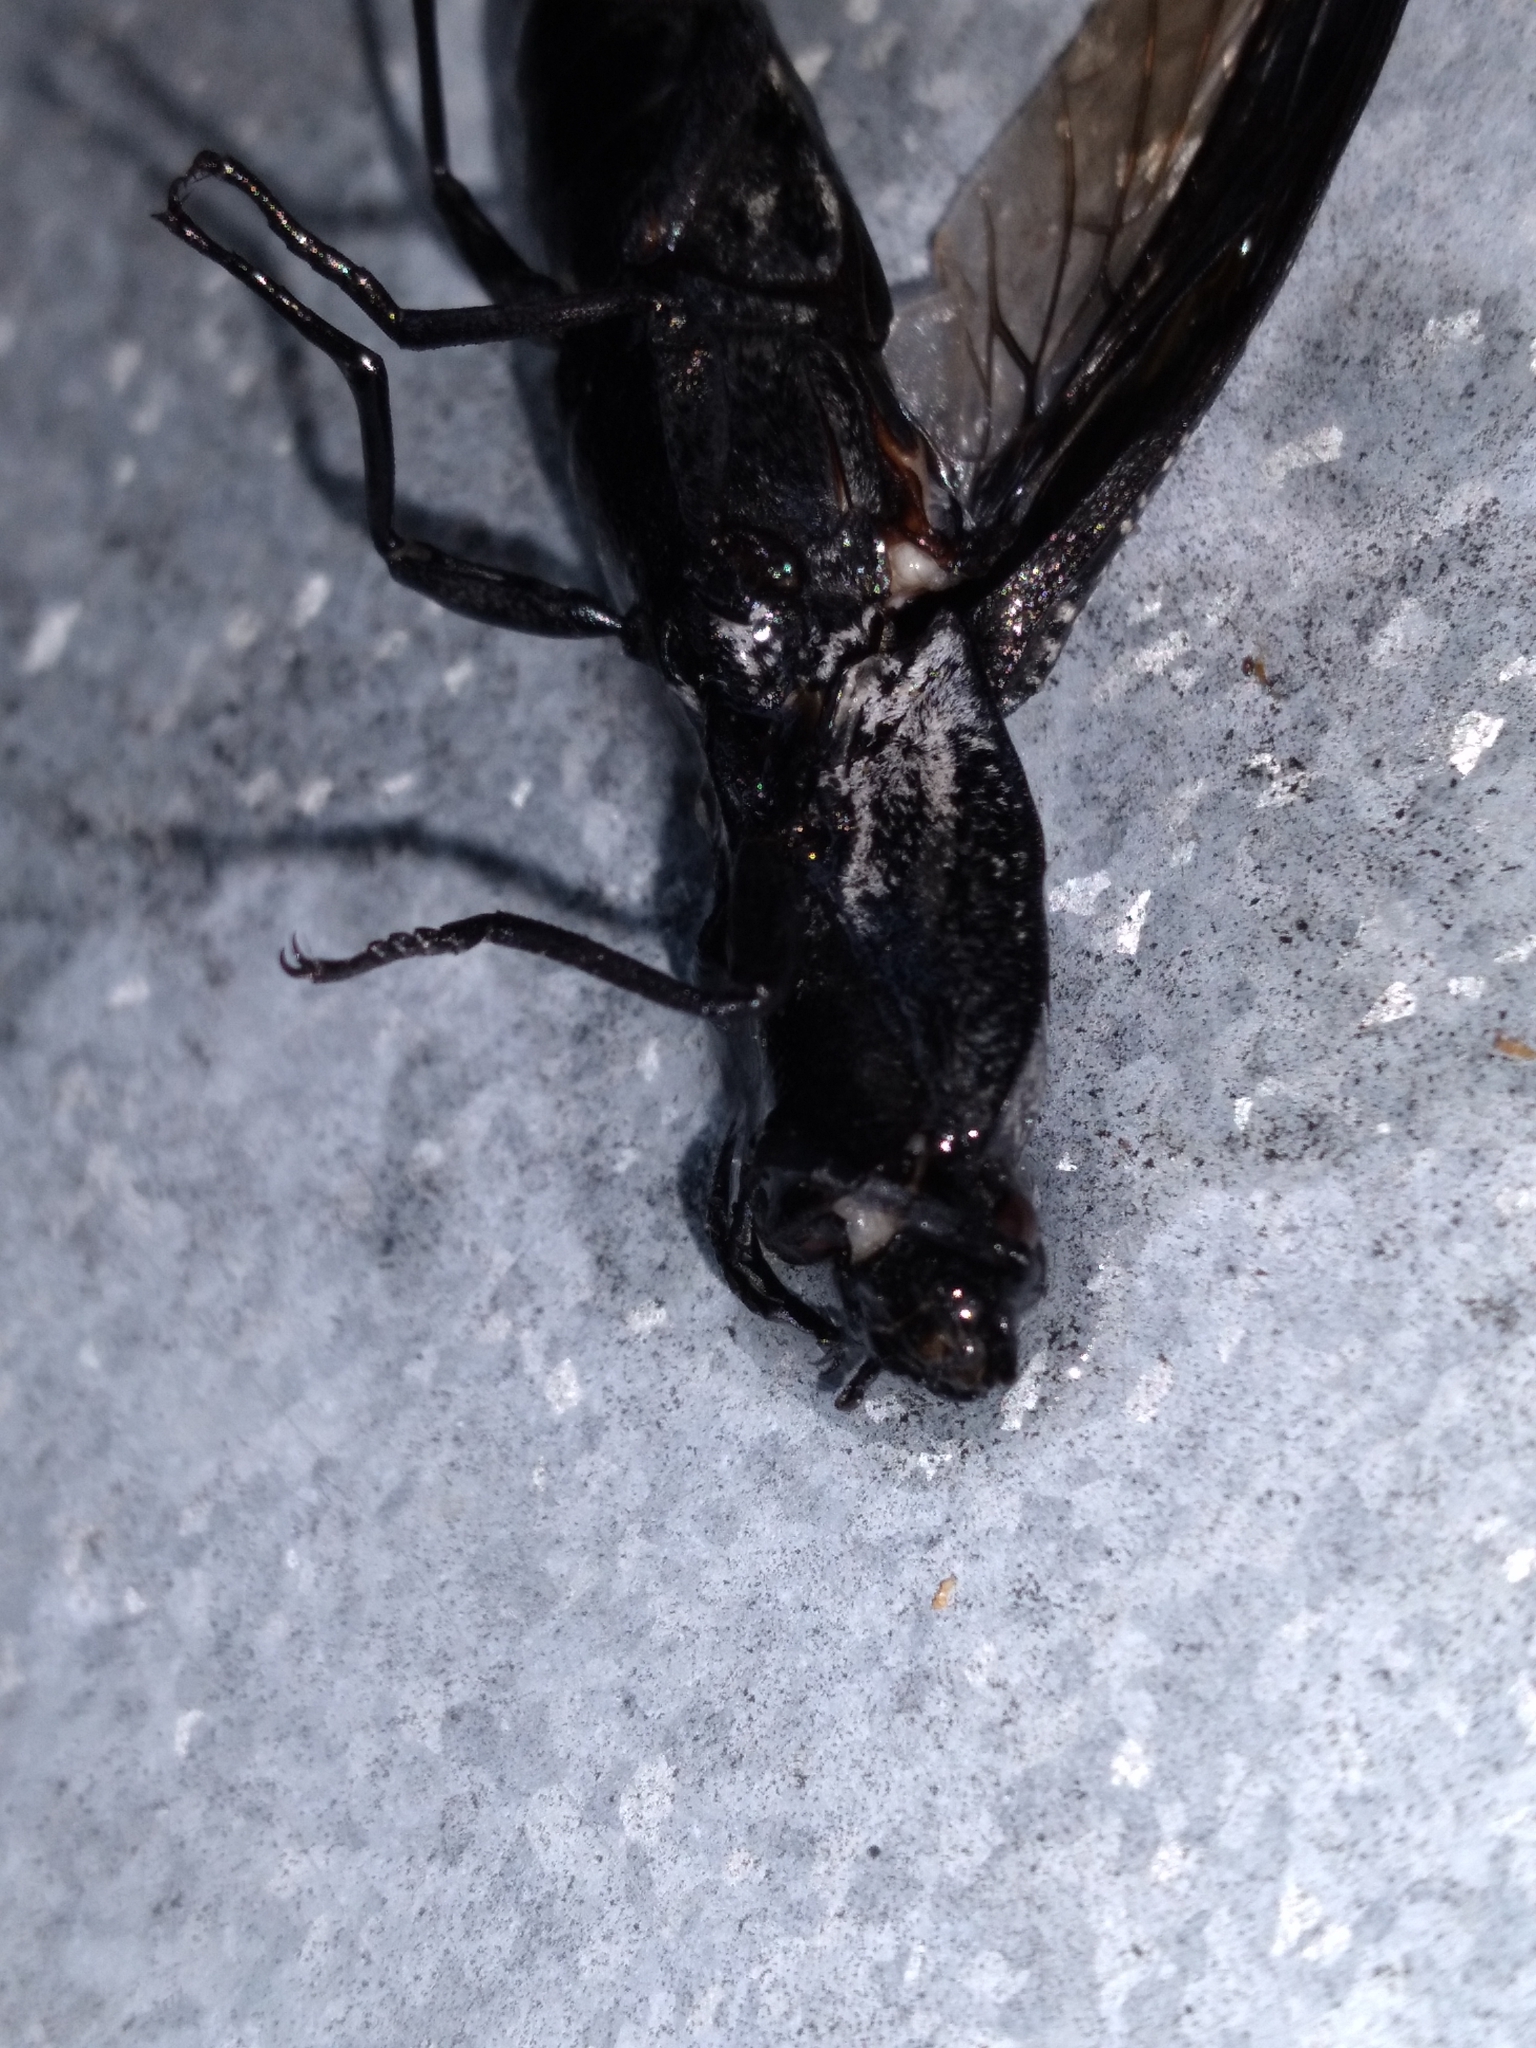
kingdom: Animalia
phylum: Arthropoda
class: Insecta
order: Coleoptera
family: Elateridae
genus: Alaus
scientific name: Alaus oculatus
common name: Eastern eyed click beetle
